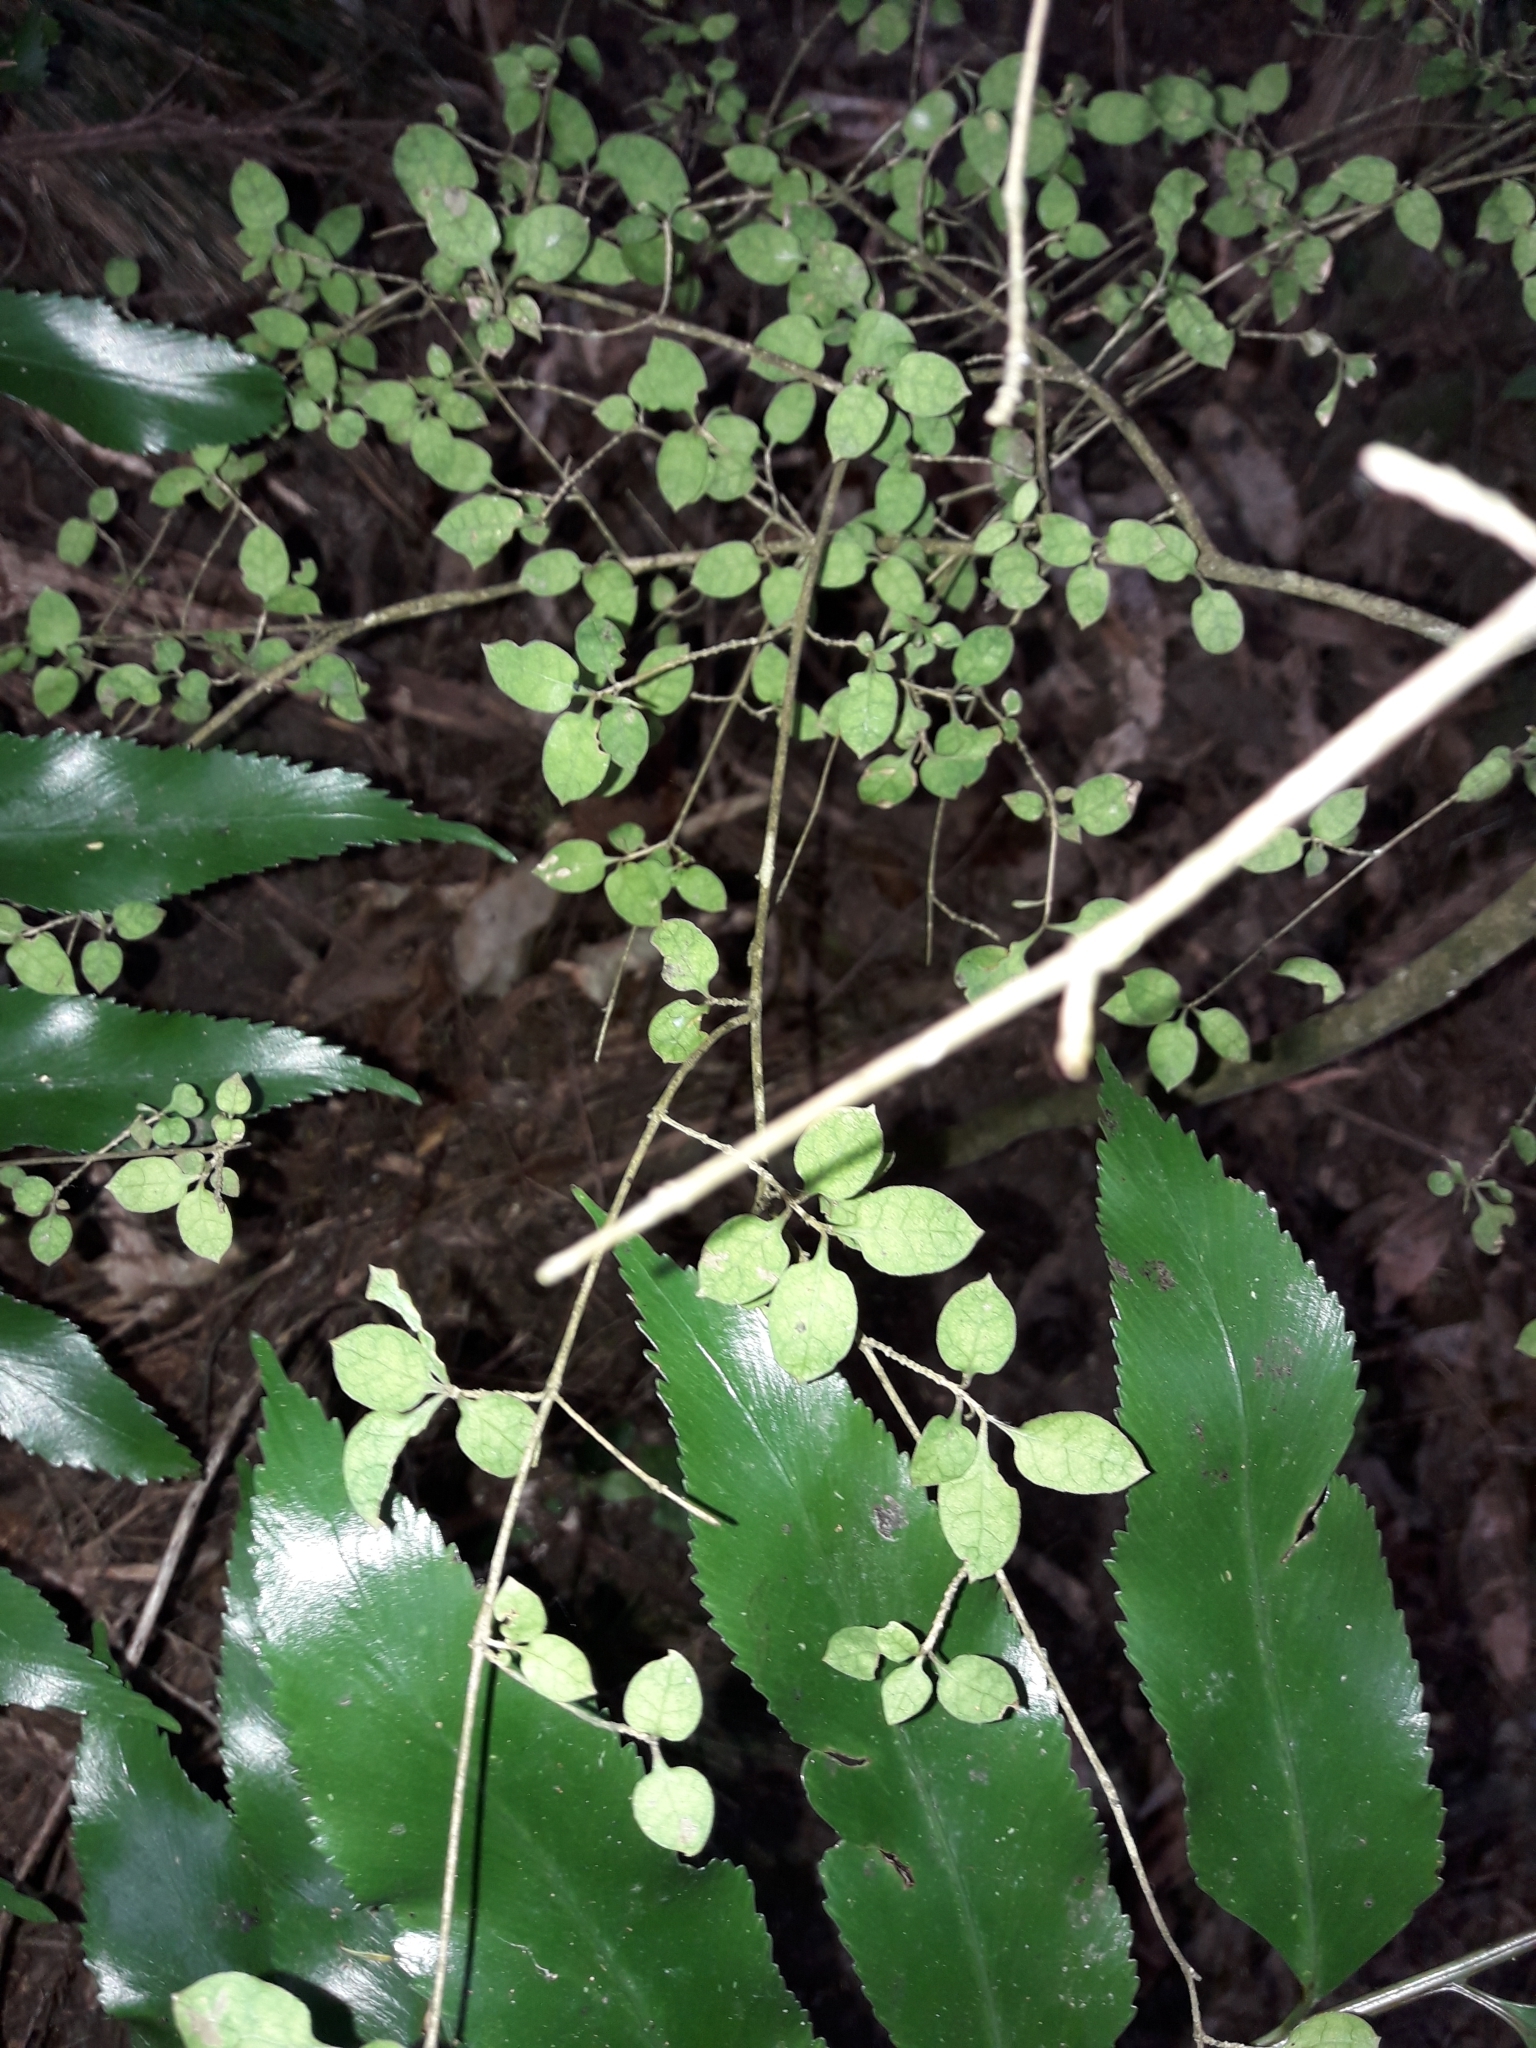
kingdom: Plantae
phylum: Tracheophyta
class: Magnoliopsida
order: Gentianales
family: Rubiaceae
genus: Coprosma
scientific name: Coprosma areolata
